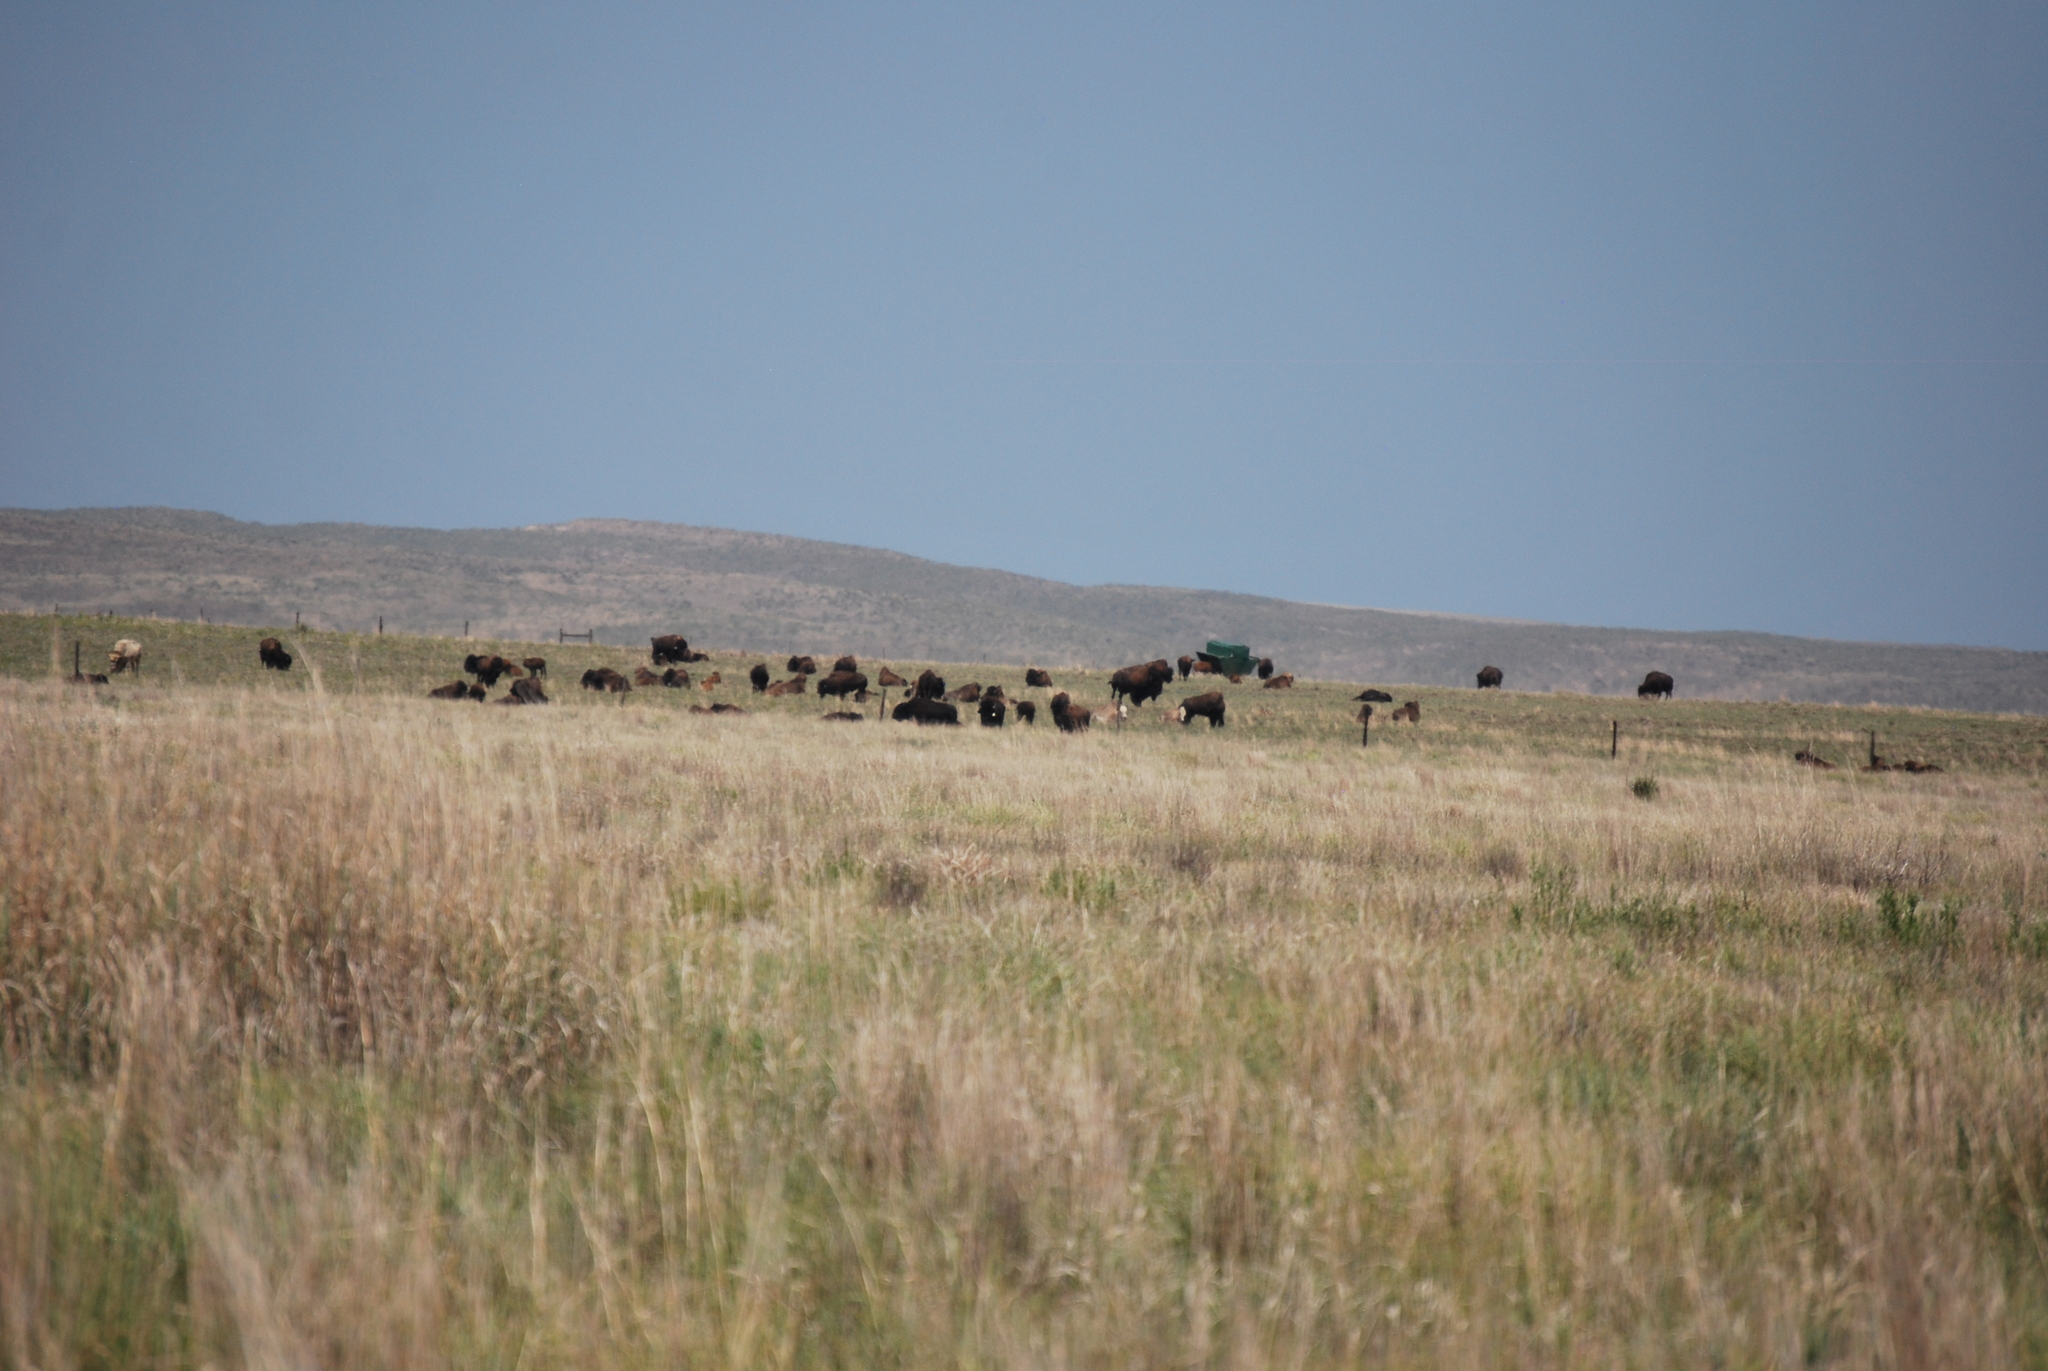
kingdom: Animalia
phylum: Chordata
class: Mammalia
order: Artiodactyla
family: Bovidae
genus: Bison
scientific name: Bison bison
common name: American bison
